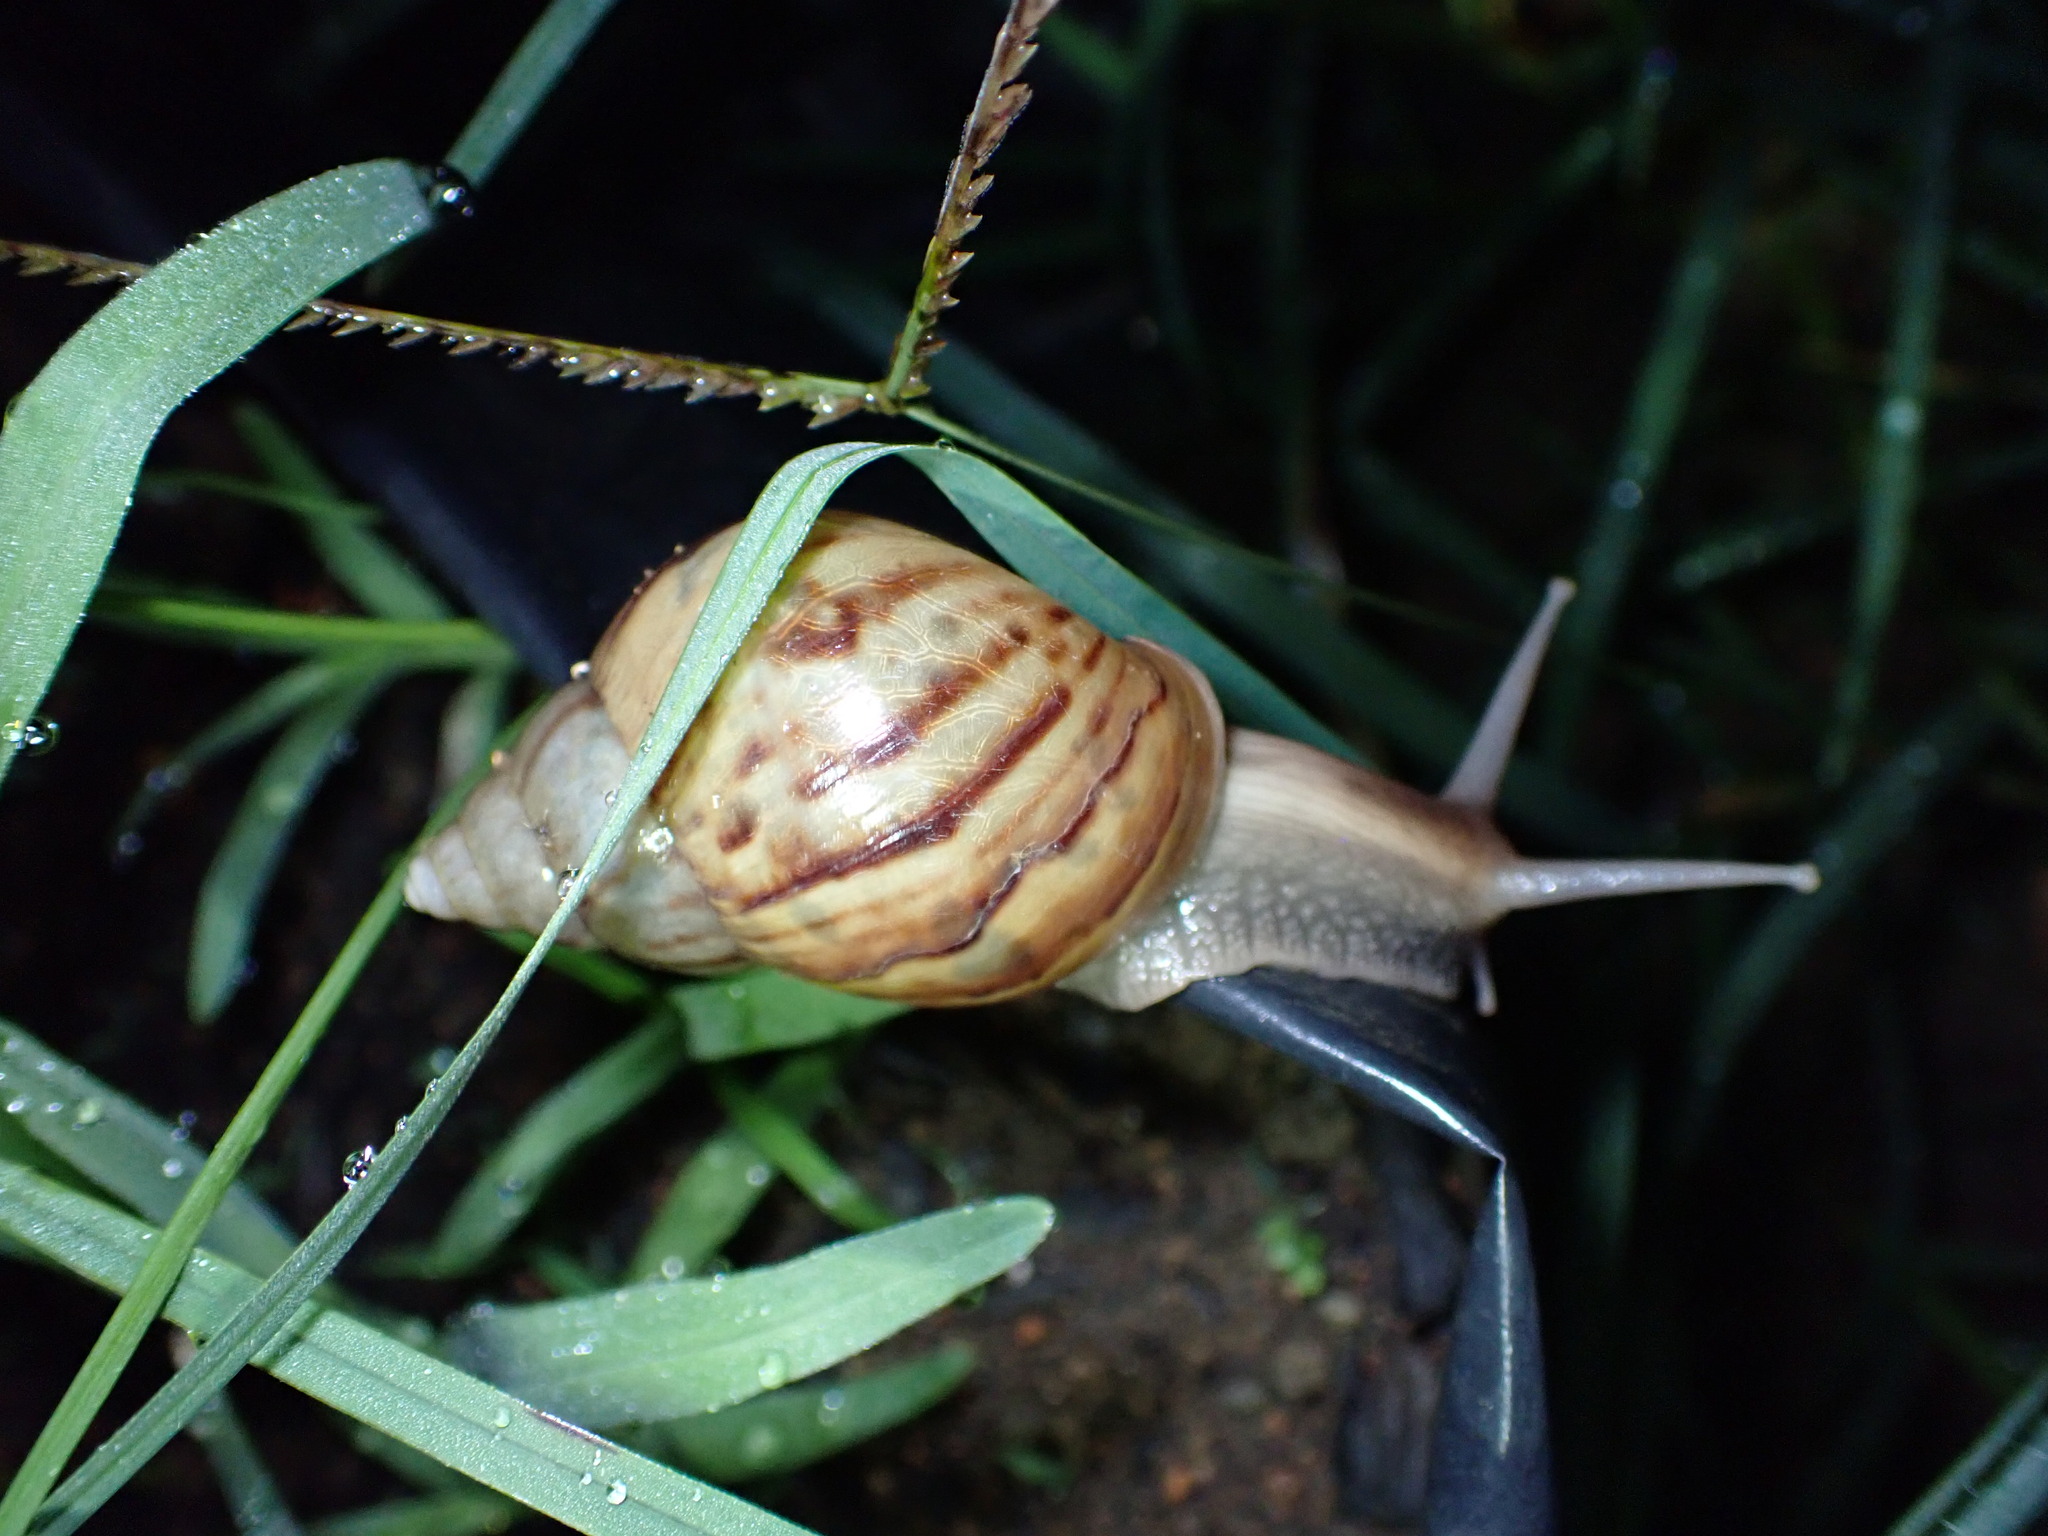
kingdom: Animalia
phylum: Mollusca
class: Gastropoda
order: Stylommatophora
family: Achatinidae
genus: Lissachatina
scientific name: Lissachatina fulica
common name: Giant african snail
